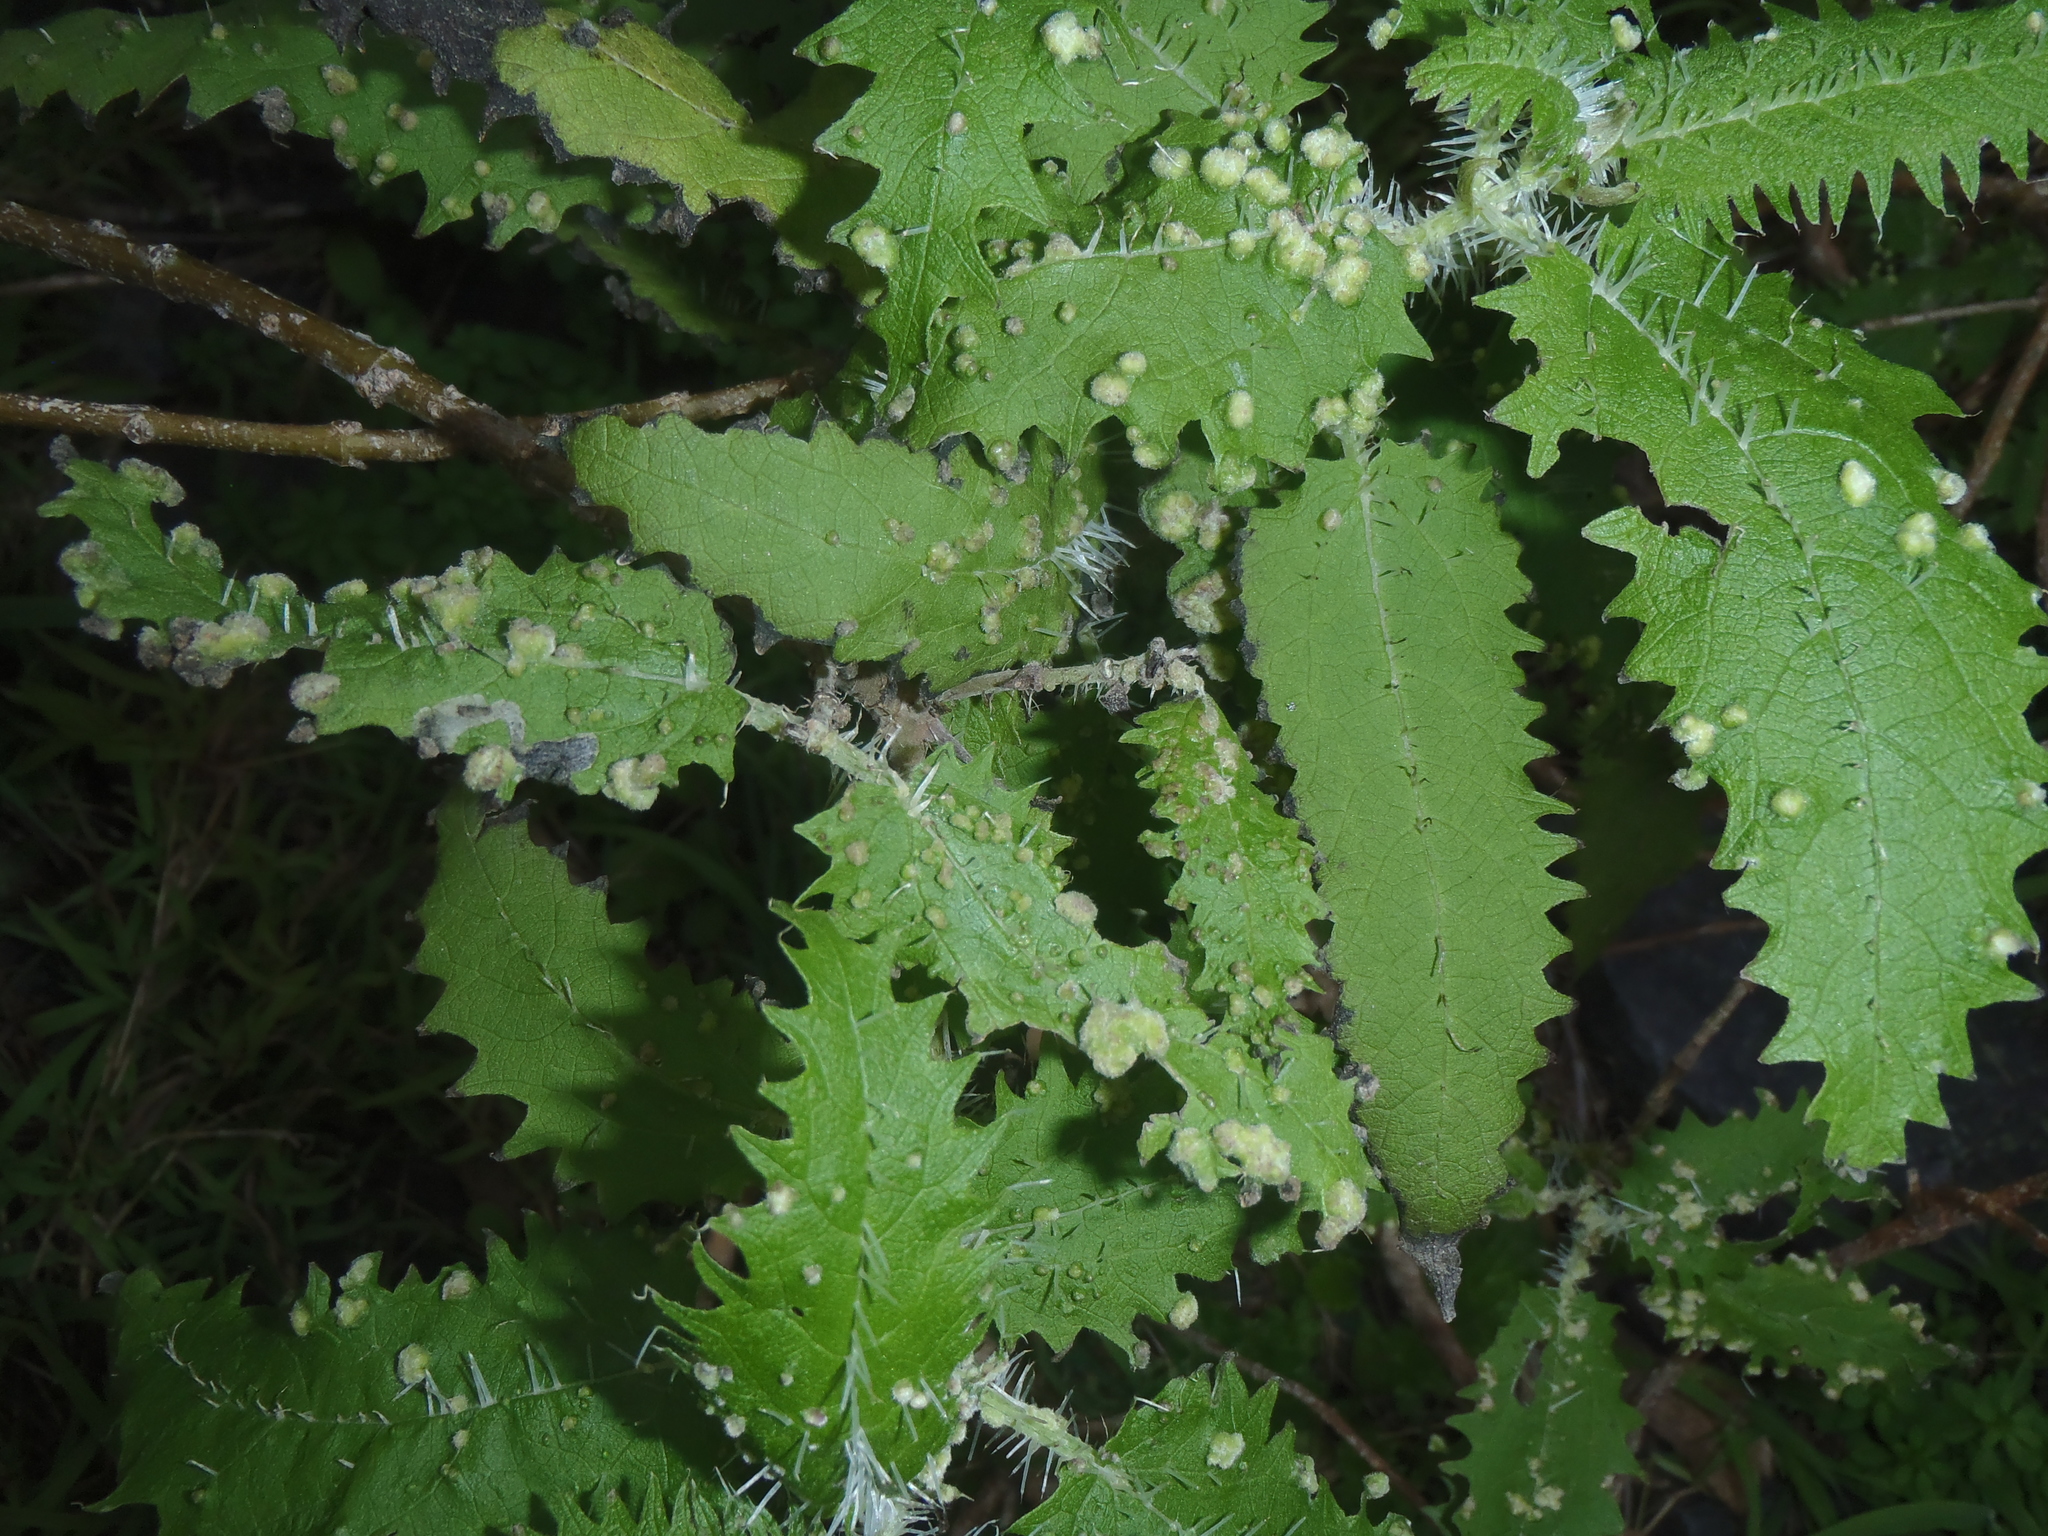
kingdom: Animalia
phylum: Arthropoda
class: Arachnida
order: Trombidiformes
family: Eriophyidae
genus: Vittacus
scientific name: Vittacus
